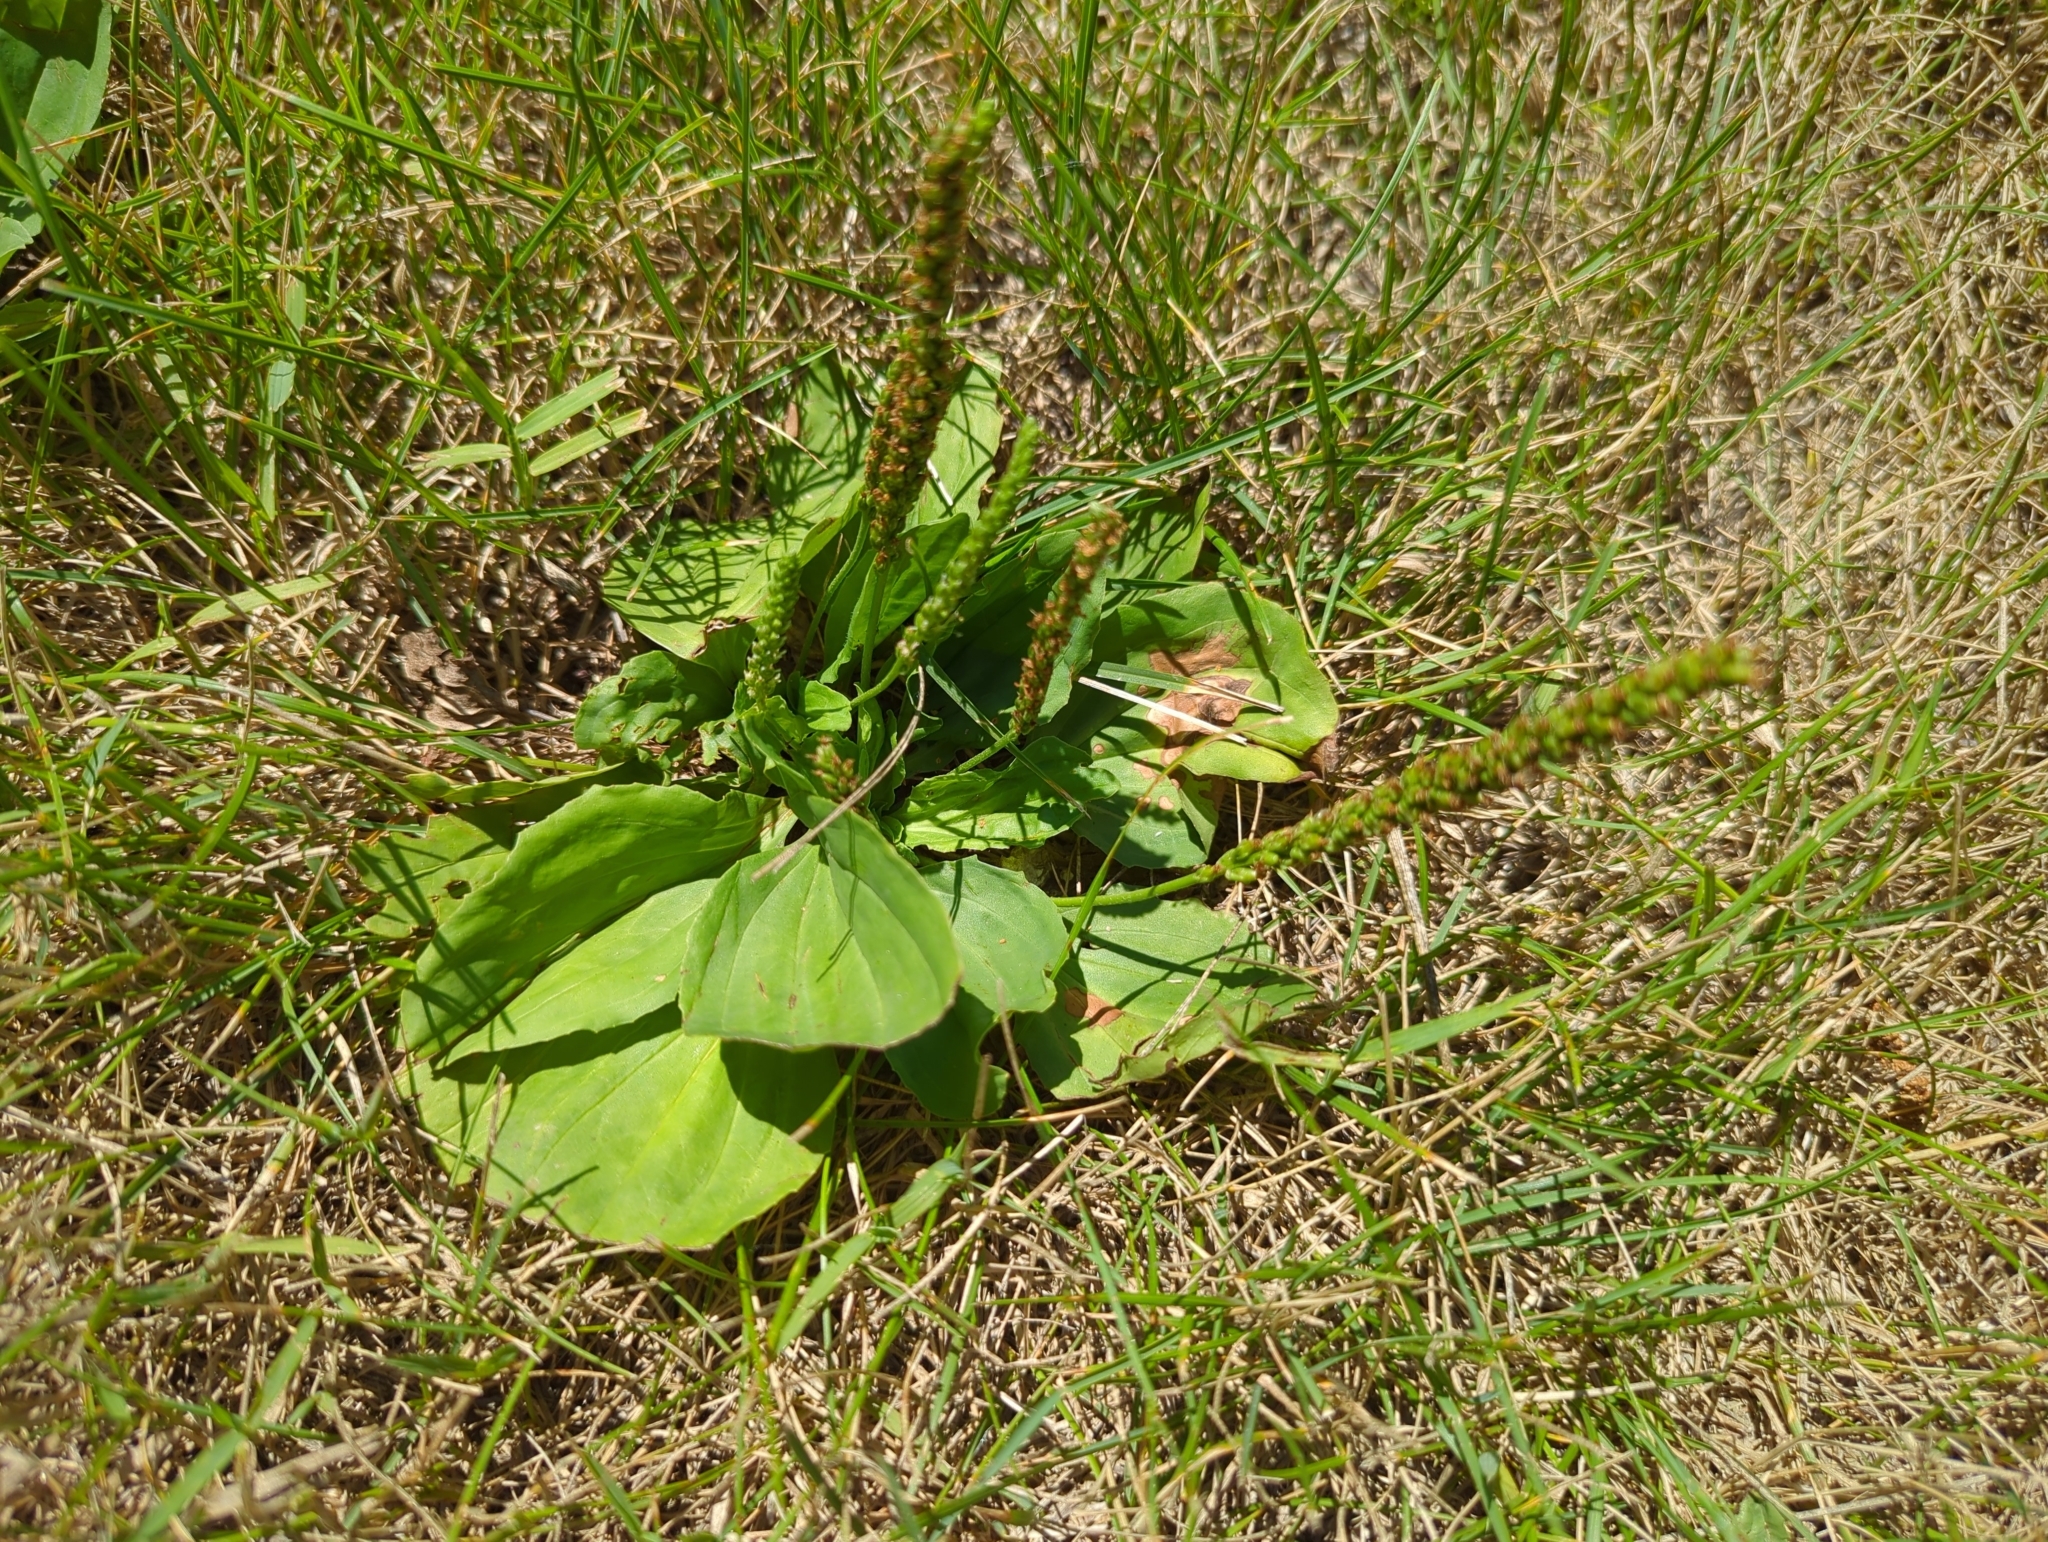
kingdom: Plantae
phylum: Tracheophyta
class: Magnoliopsida
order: Lamiales
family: Plantaginaceae
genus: Plantago
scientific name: Plantago major
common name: Common plantain
